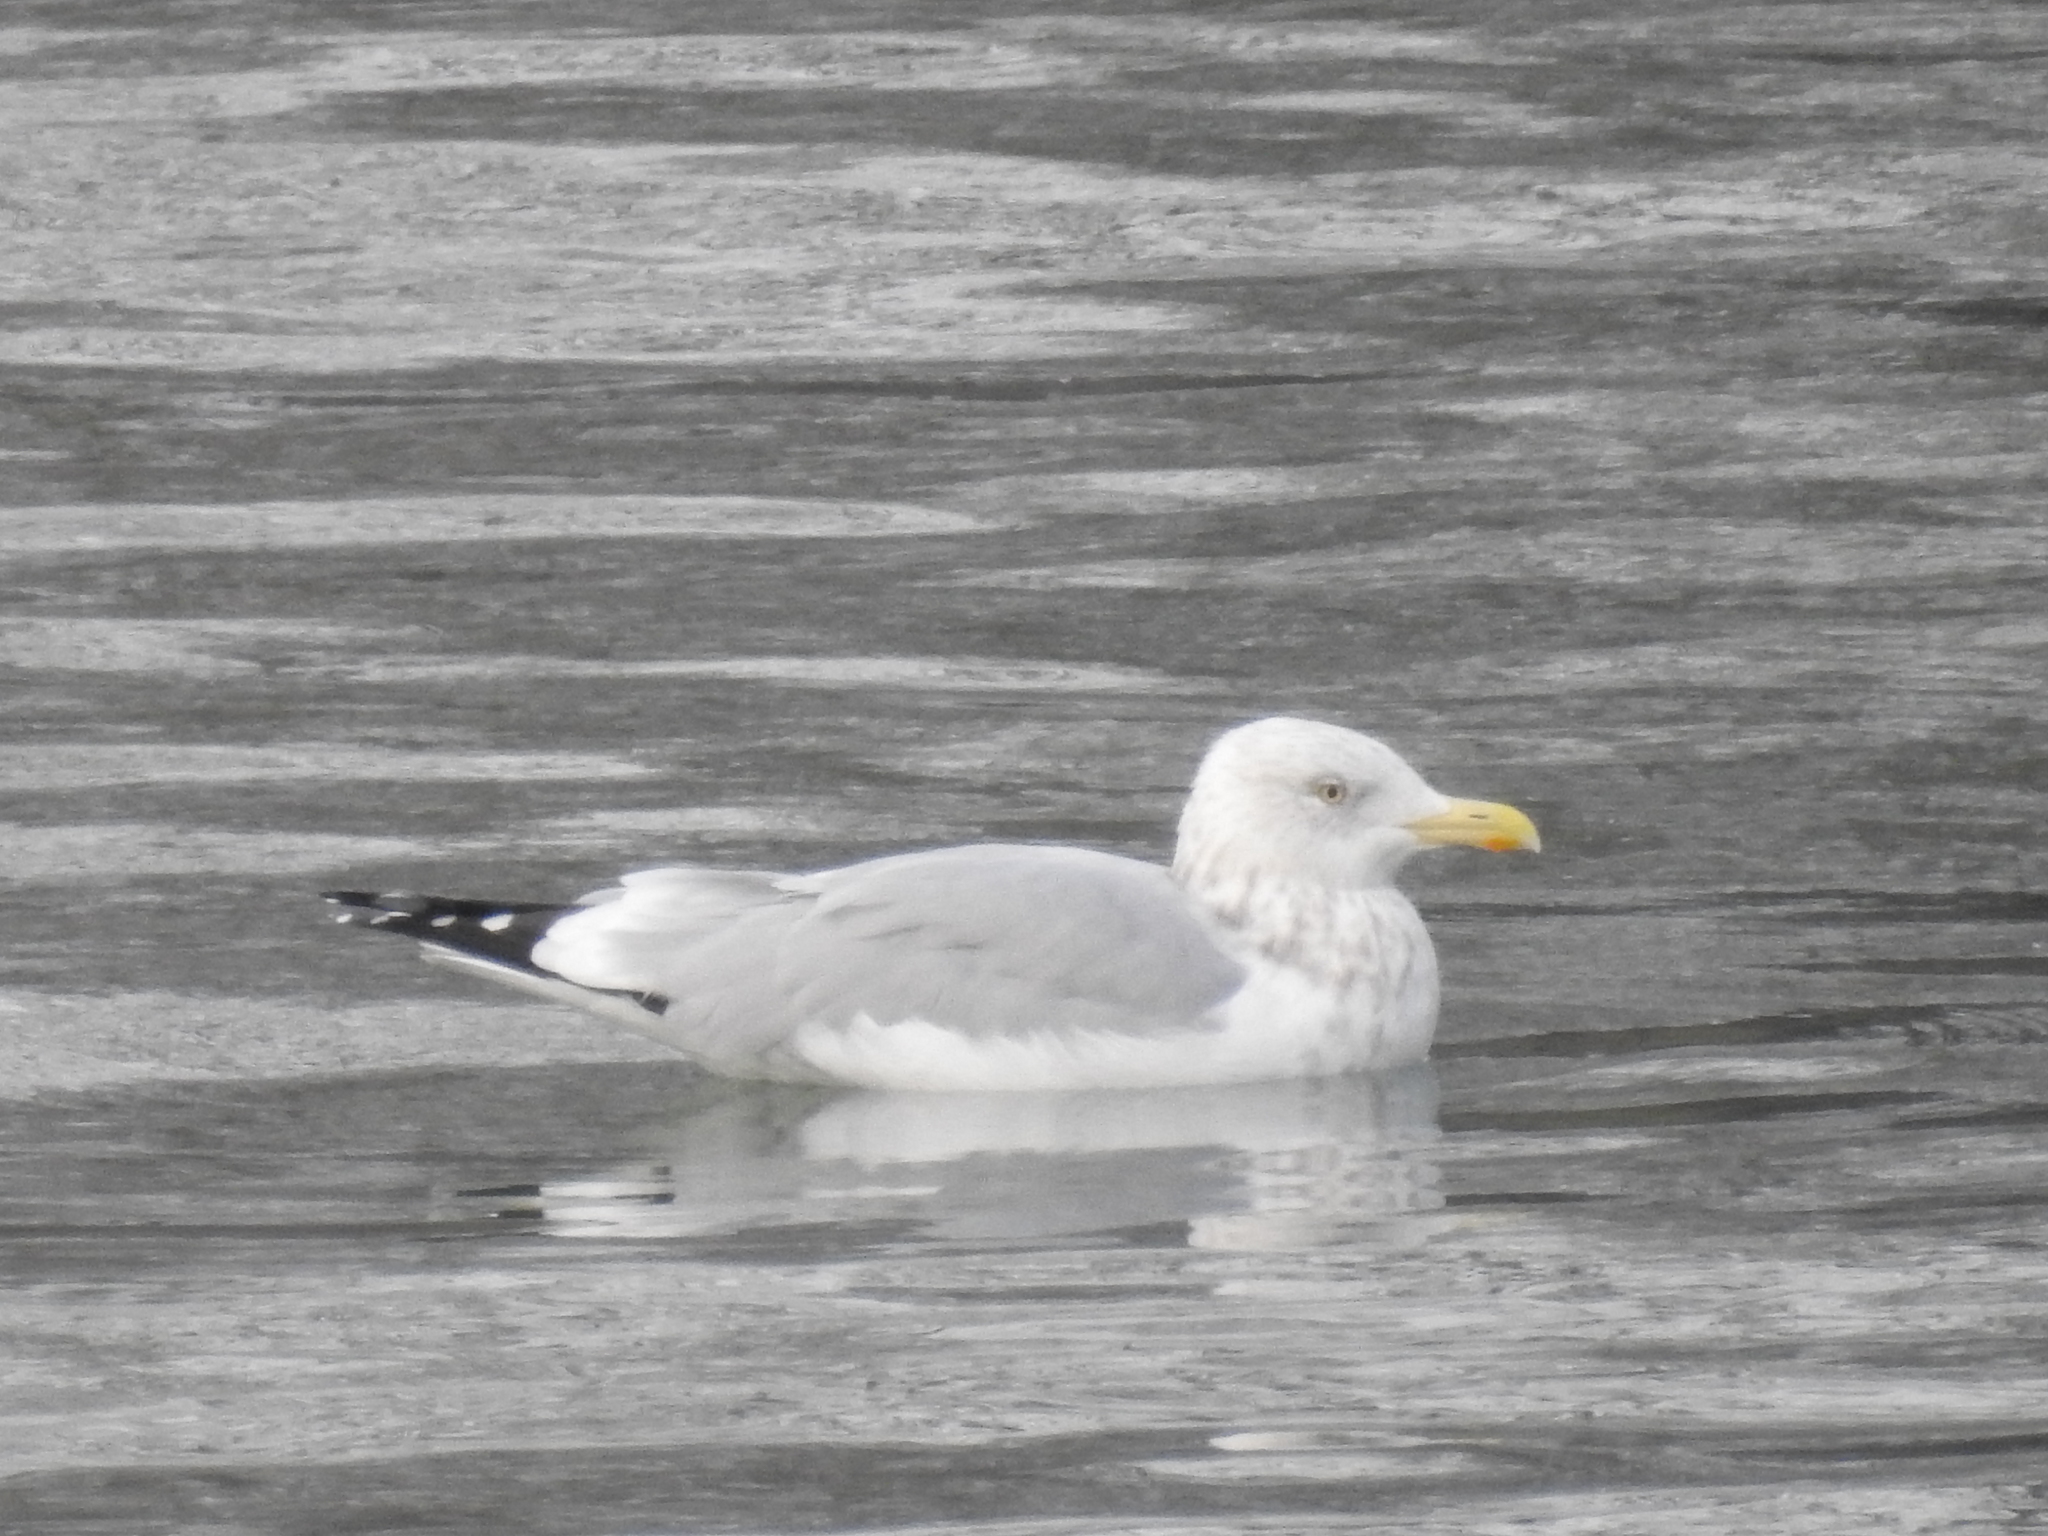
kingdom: Animalia
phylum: Chordata
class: Aves
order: Charadriiformes
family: Laridae
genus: Larus
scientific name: Larus argentatus
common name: Herring gull
